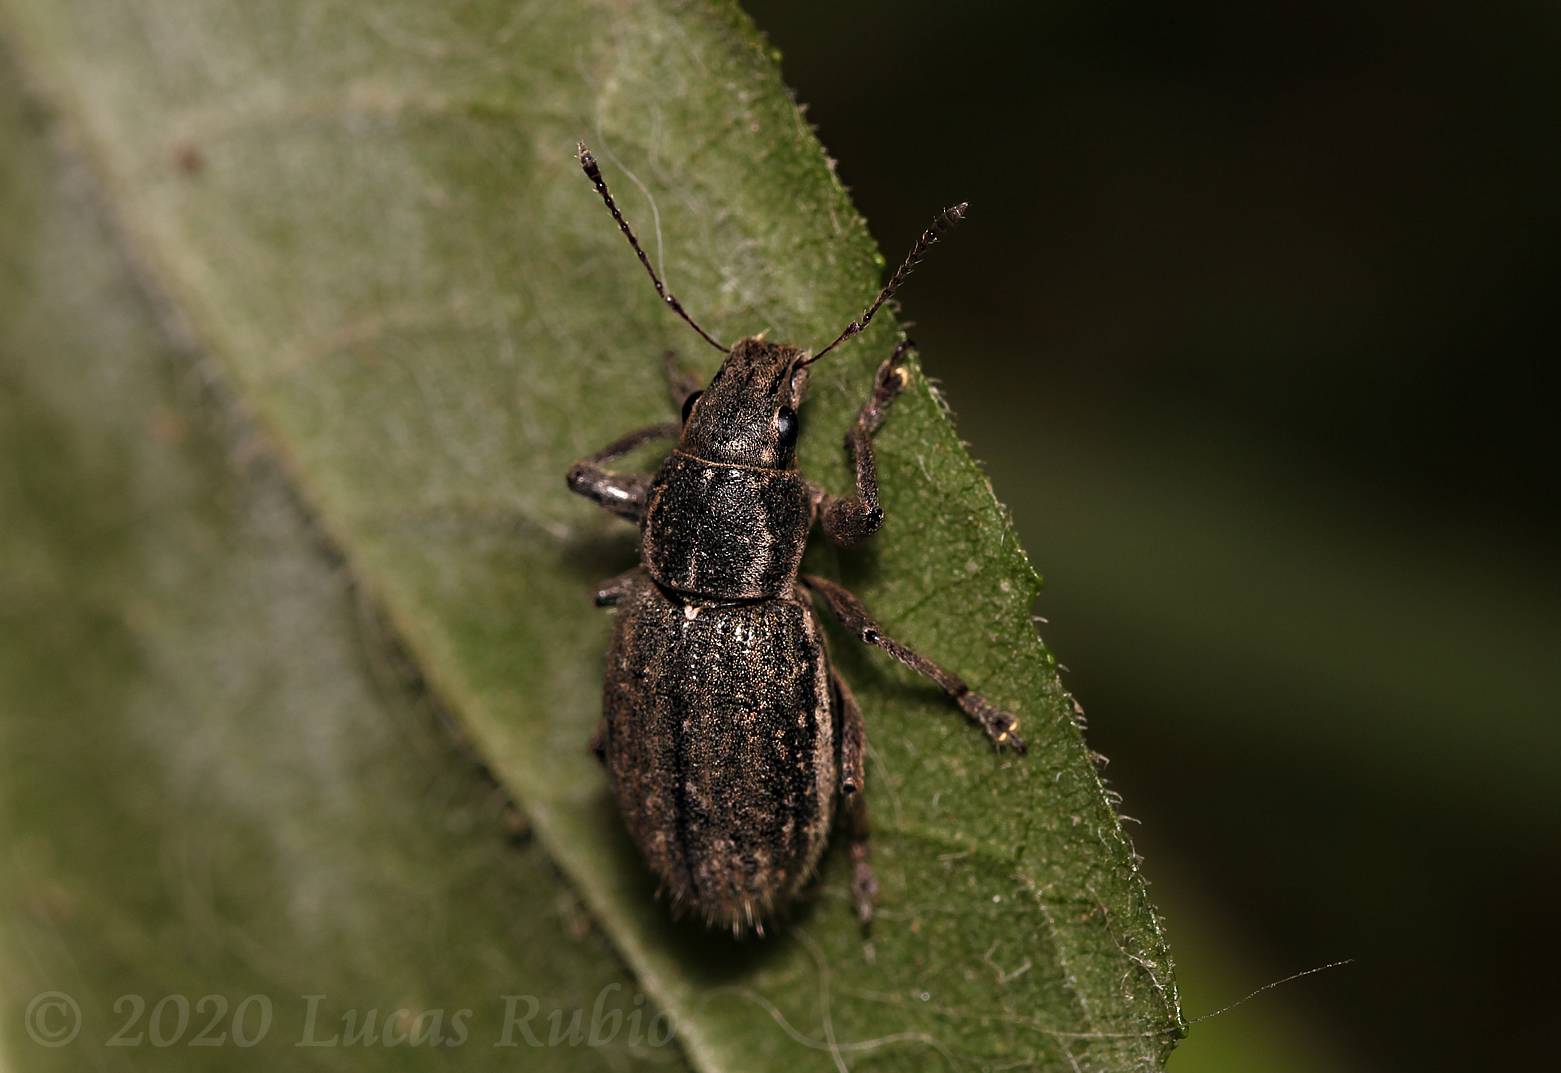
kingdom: Animalia
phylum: Arthropoda
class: Insecta
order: Coleoptera
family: Curculionidae
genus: Naupactus
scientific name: Naupactus leucoloma
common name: Whitefringed beetle
